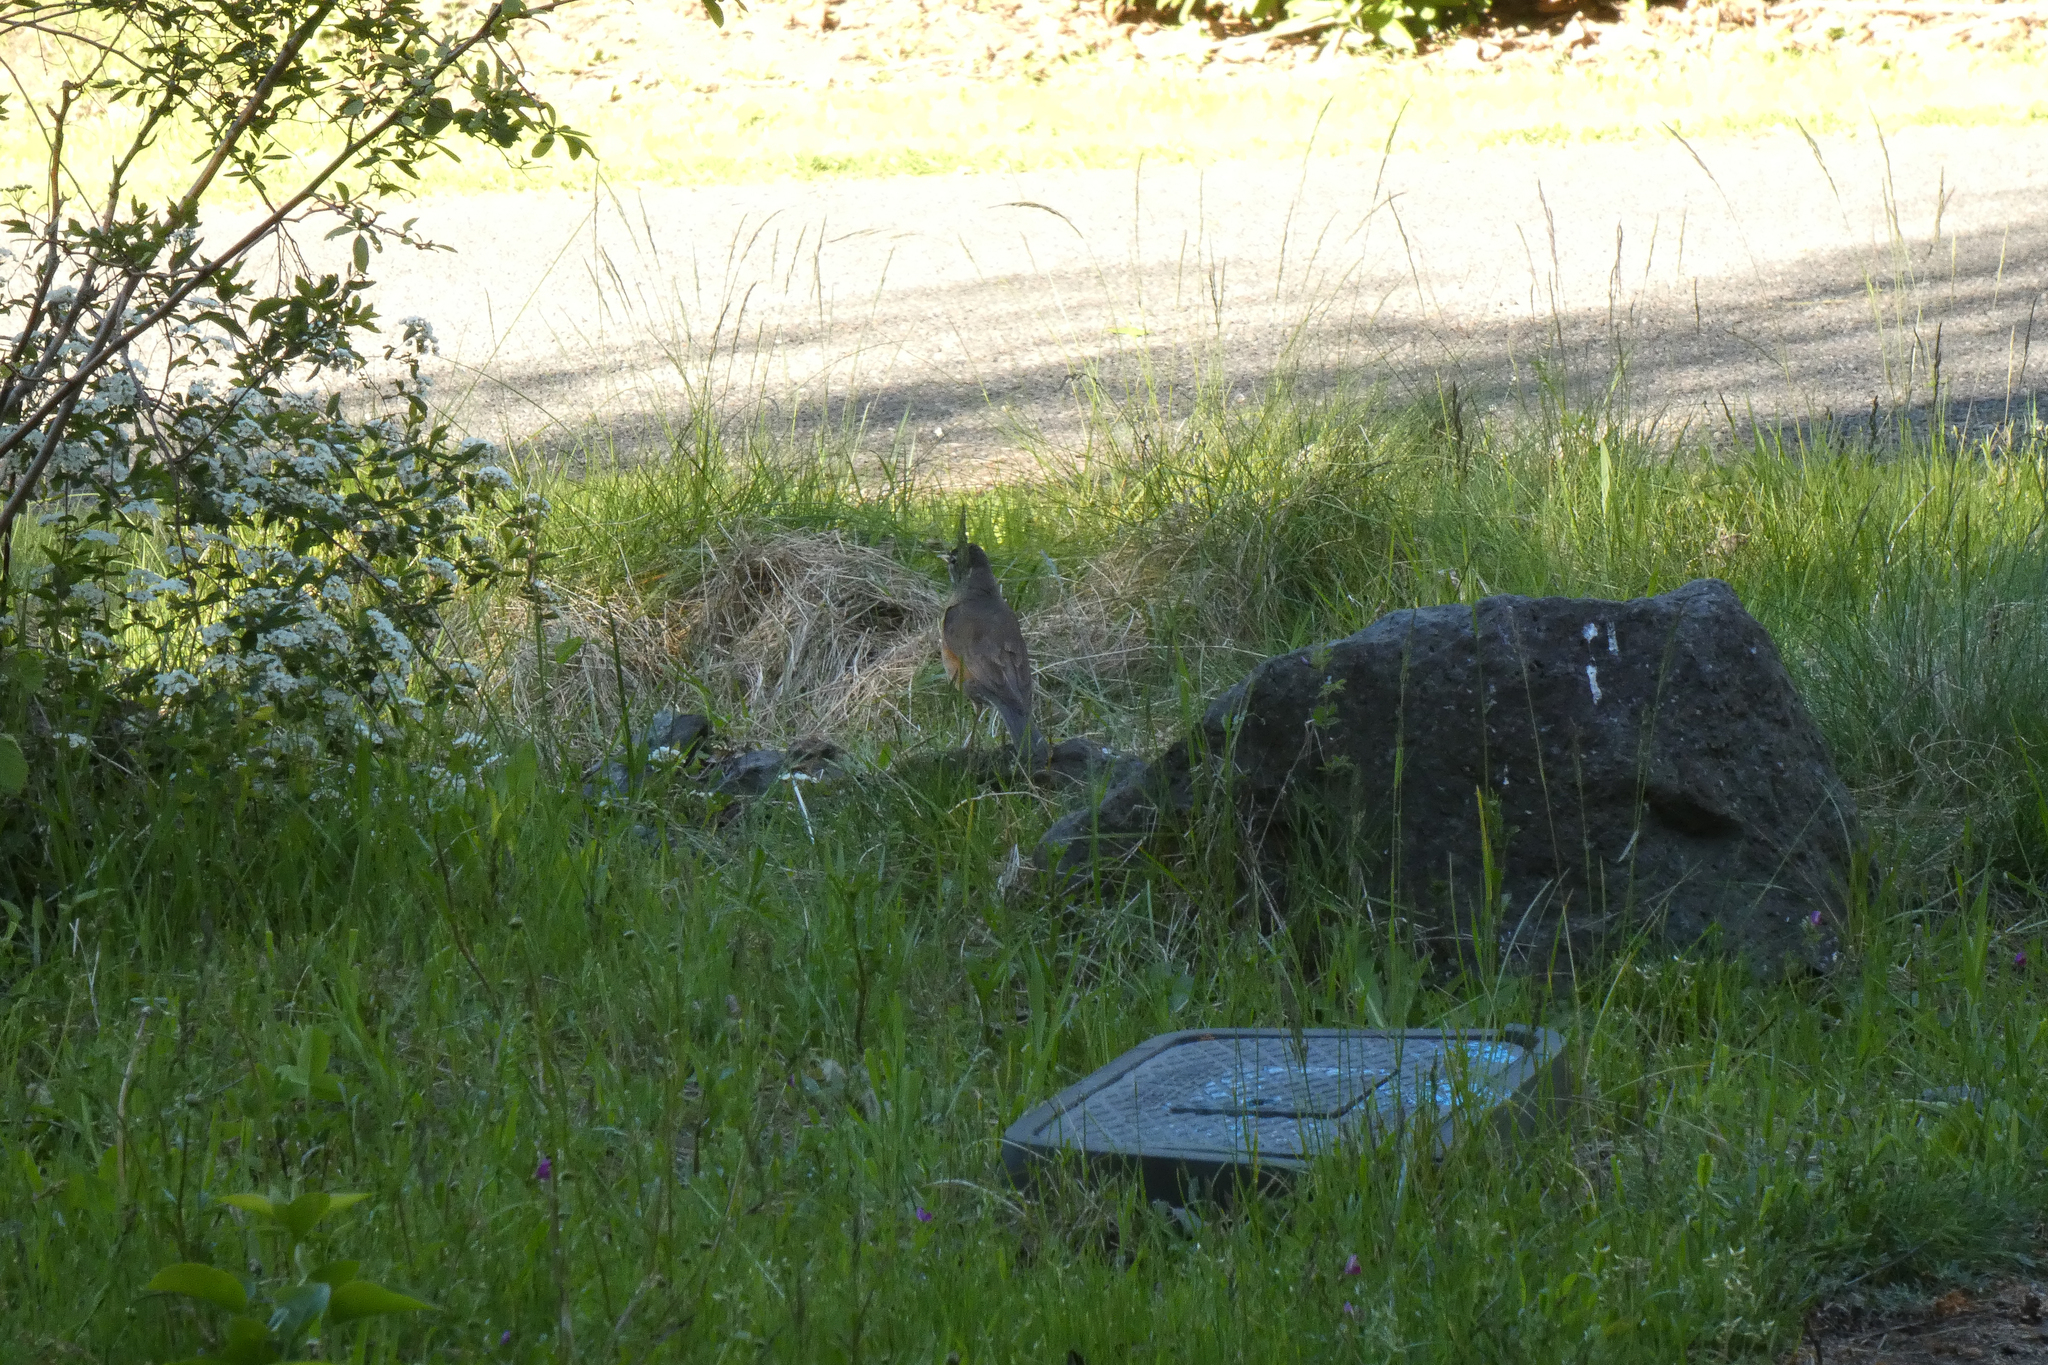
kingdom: Animalia
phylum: Chordata
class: Aves
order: Passeriformes
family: Turdidae
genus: Turdus
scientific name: Turdus migratorius
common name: American robin
